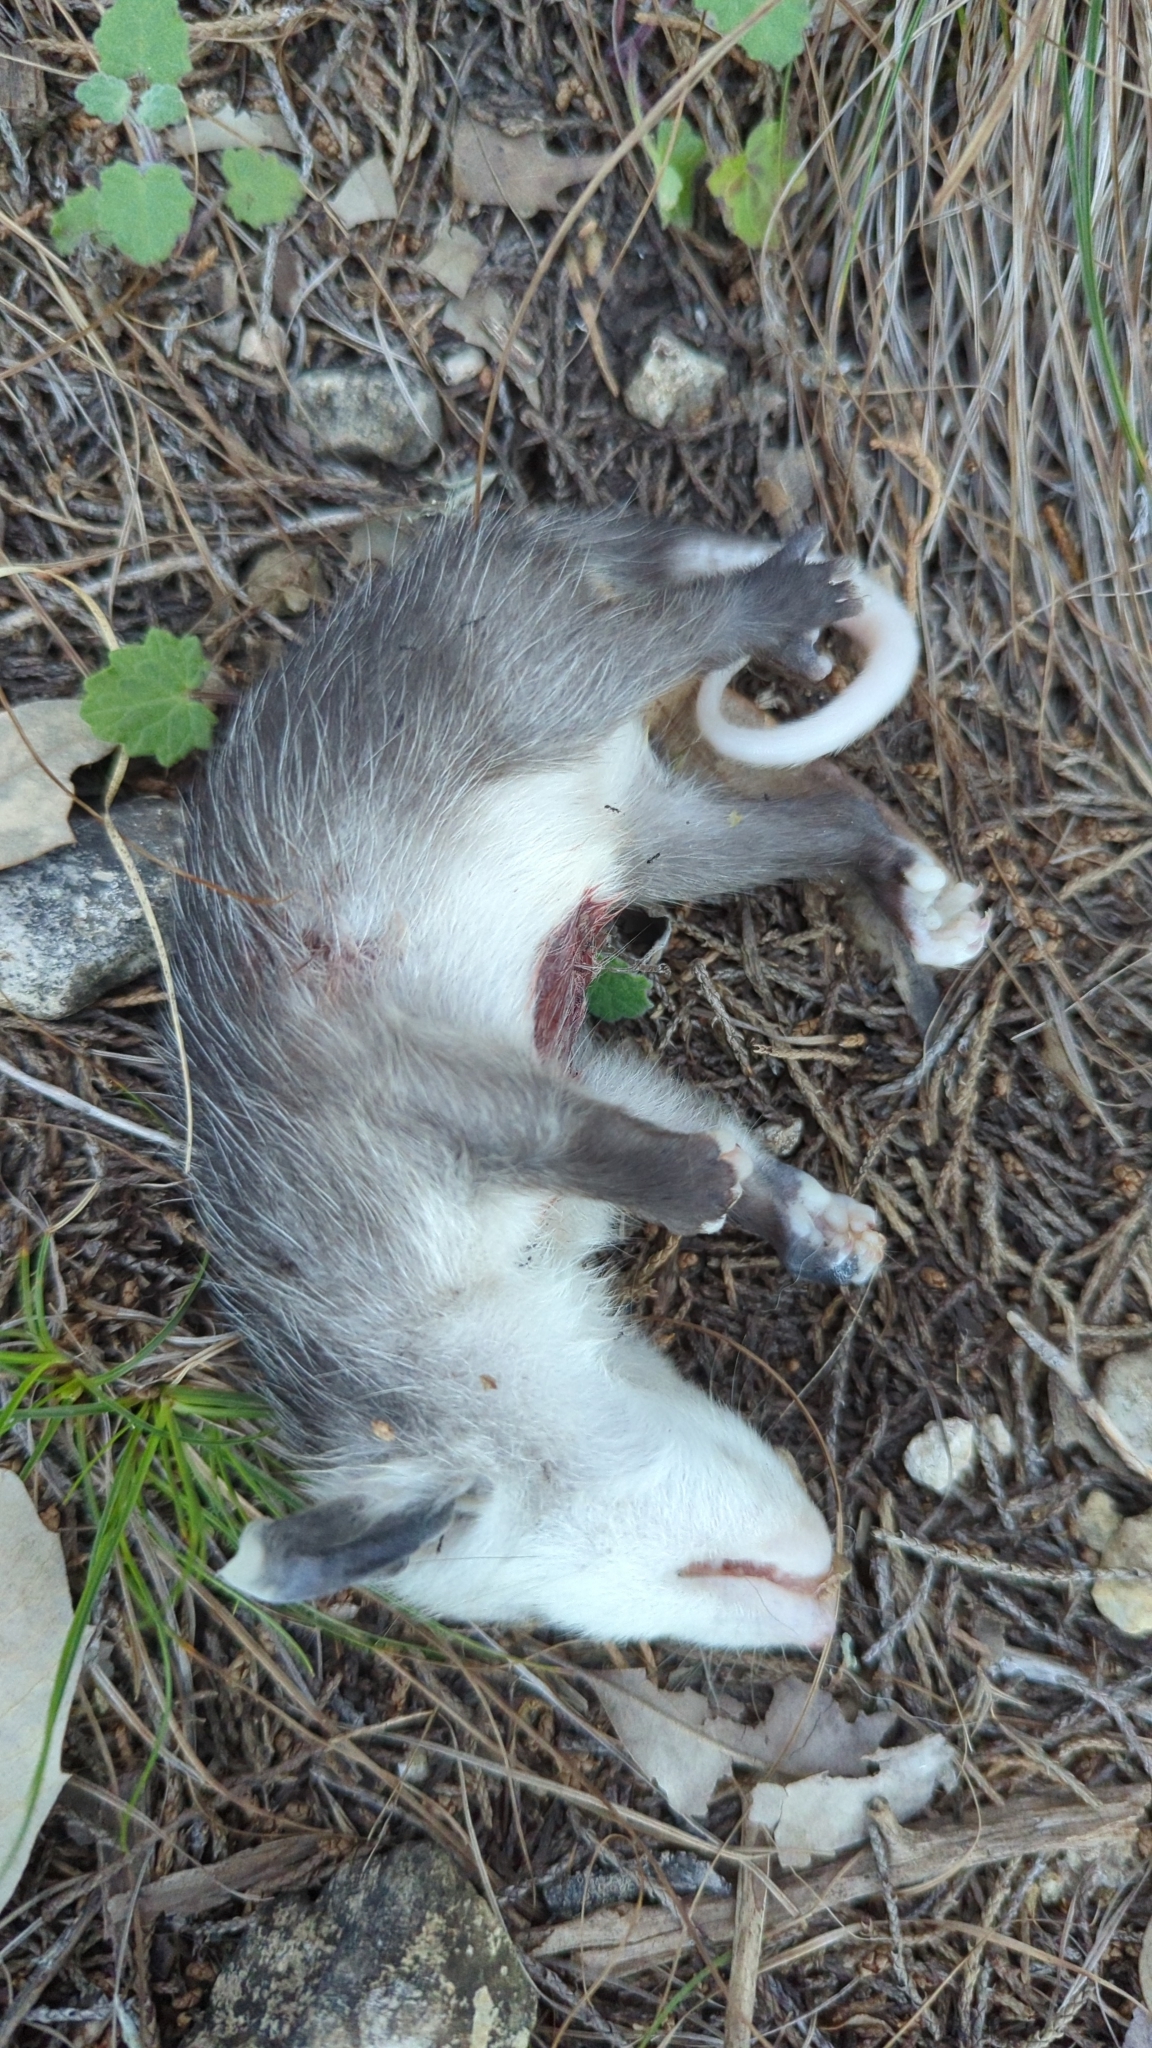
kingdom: Animalia
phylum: Chordata
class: Mammalia
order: Didelphimorphia
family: Didelphidae
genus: Didelphis
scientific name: Didelphis virginiana
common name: Virginia opossum
